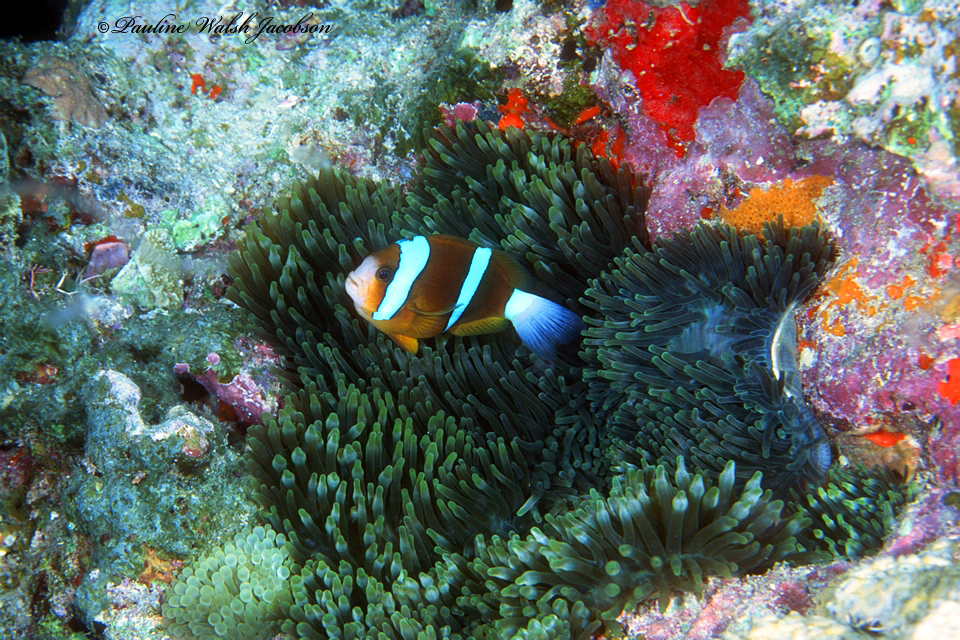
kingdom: Animalia
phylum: Chordata
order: Perciformes
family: Pomacentridae
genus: Amphiprion
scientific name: Amphiprion akindynos
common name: Barrier reef anemonefish
